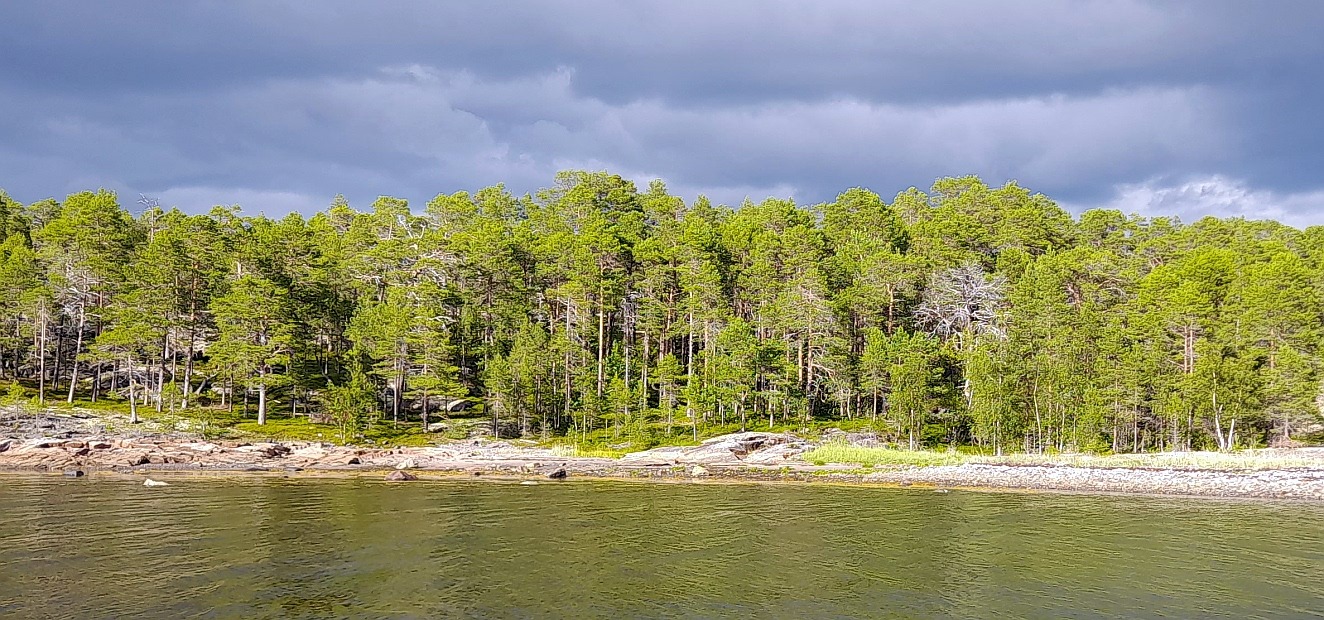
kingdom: Plantae
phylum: Tracheophyta
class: Pinopsida
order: Pinales
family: Pinaceae
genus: Pinus
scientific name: Pinus sylvestris
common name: Scots pine
